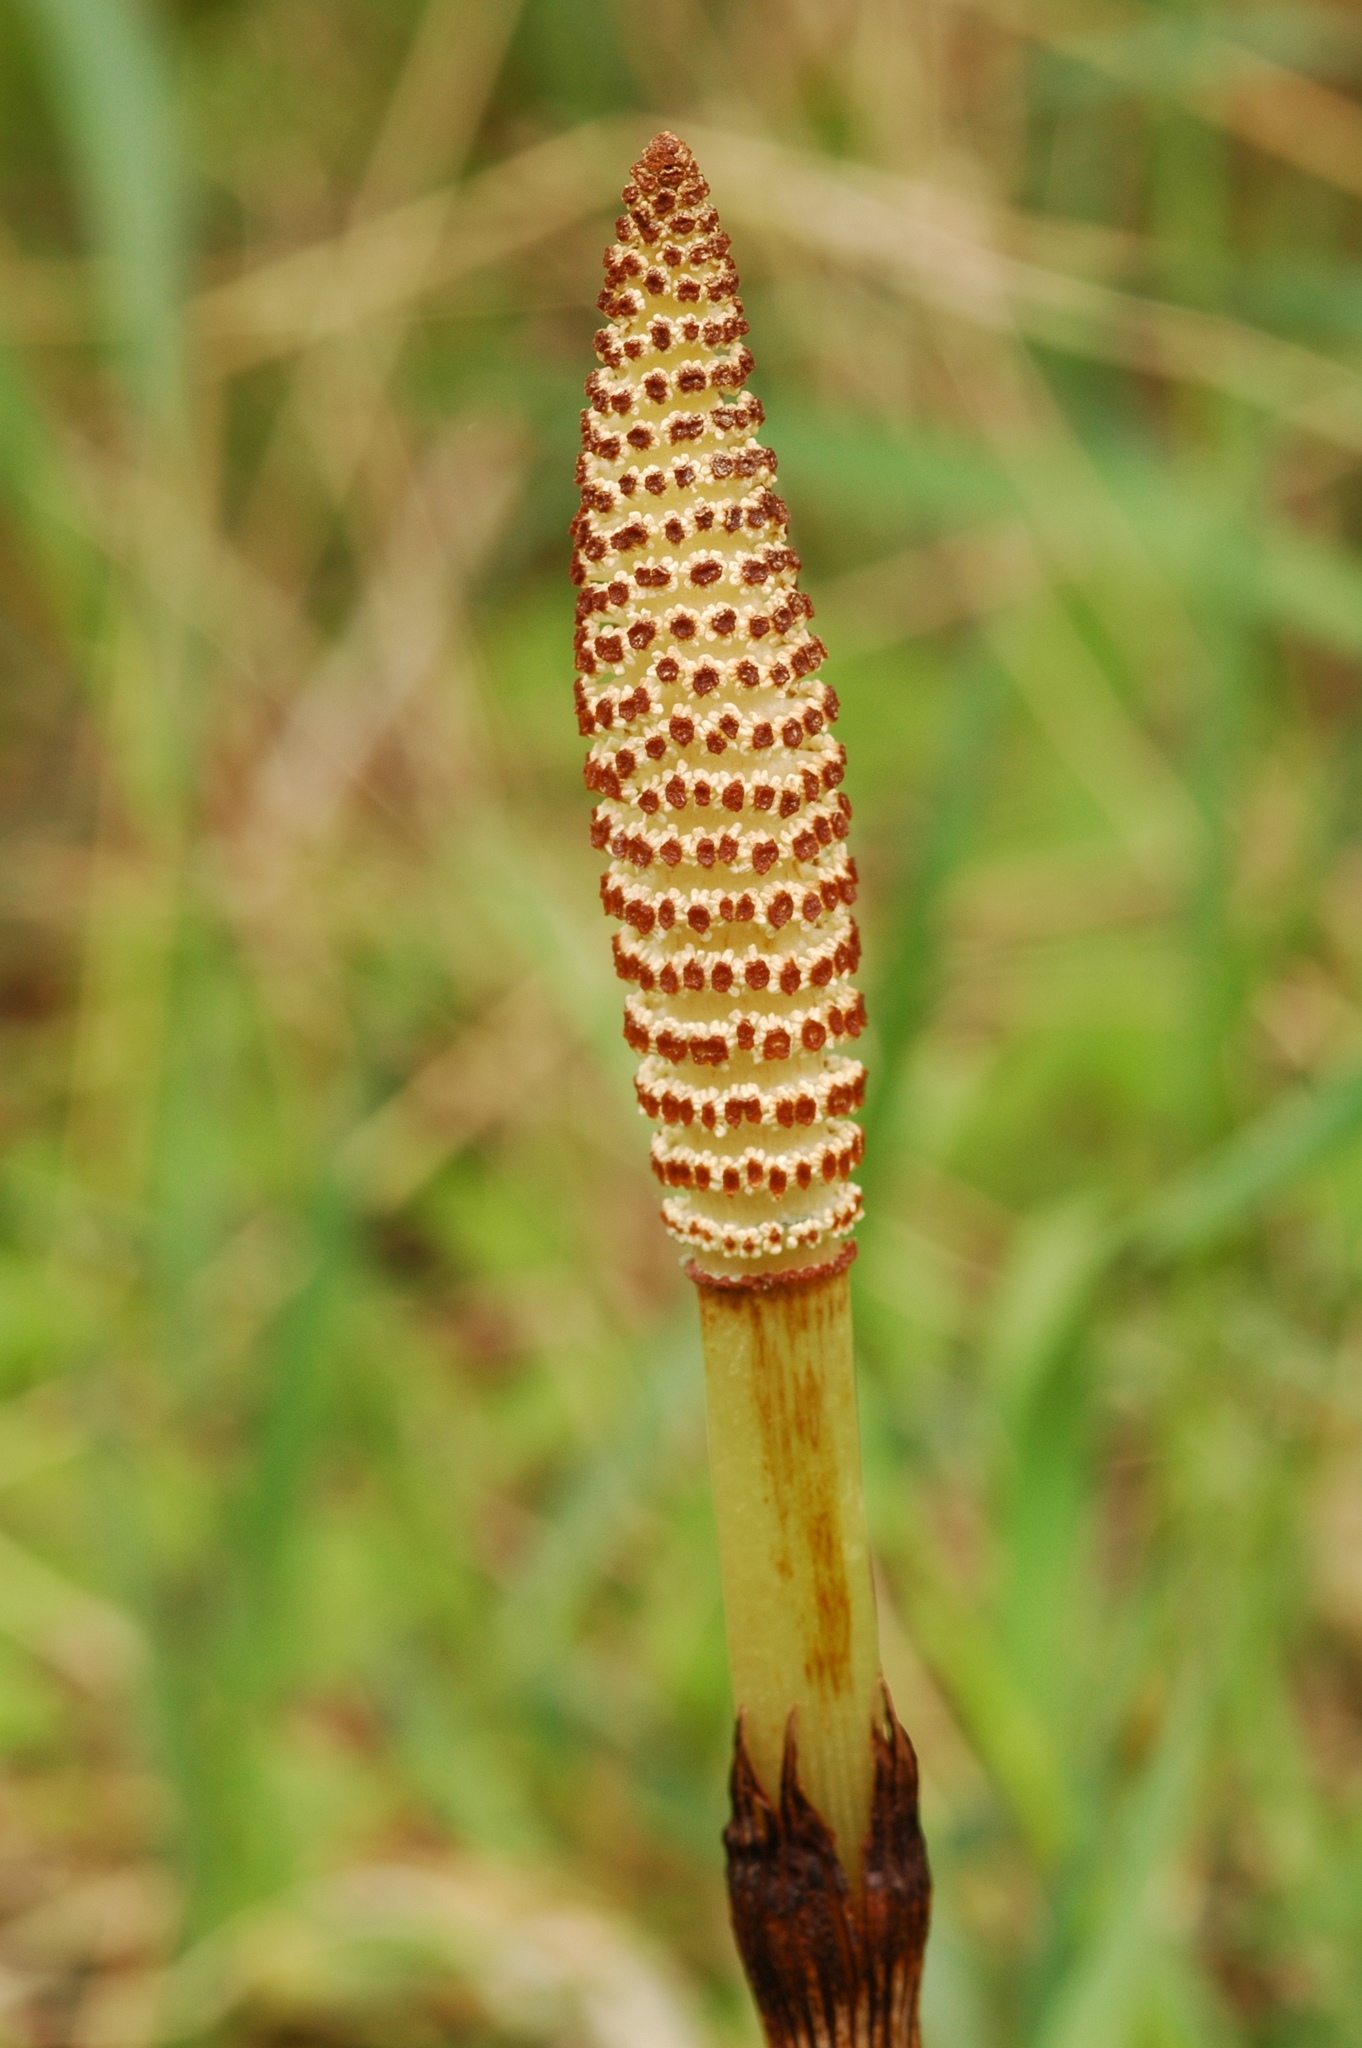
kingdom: Plantae
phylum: Tracheophyta
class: Polypodiopsida
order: Equisetales
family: Equisetaceae
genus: Equisetum
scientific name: Equisetum braunii
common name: Braun's horsetail
